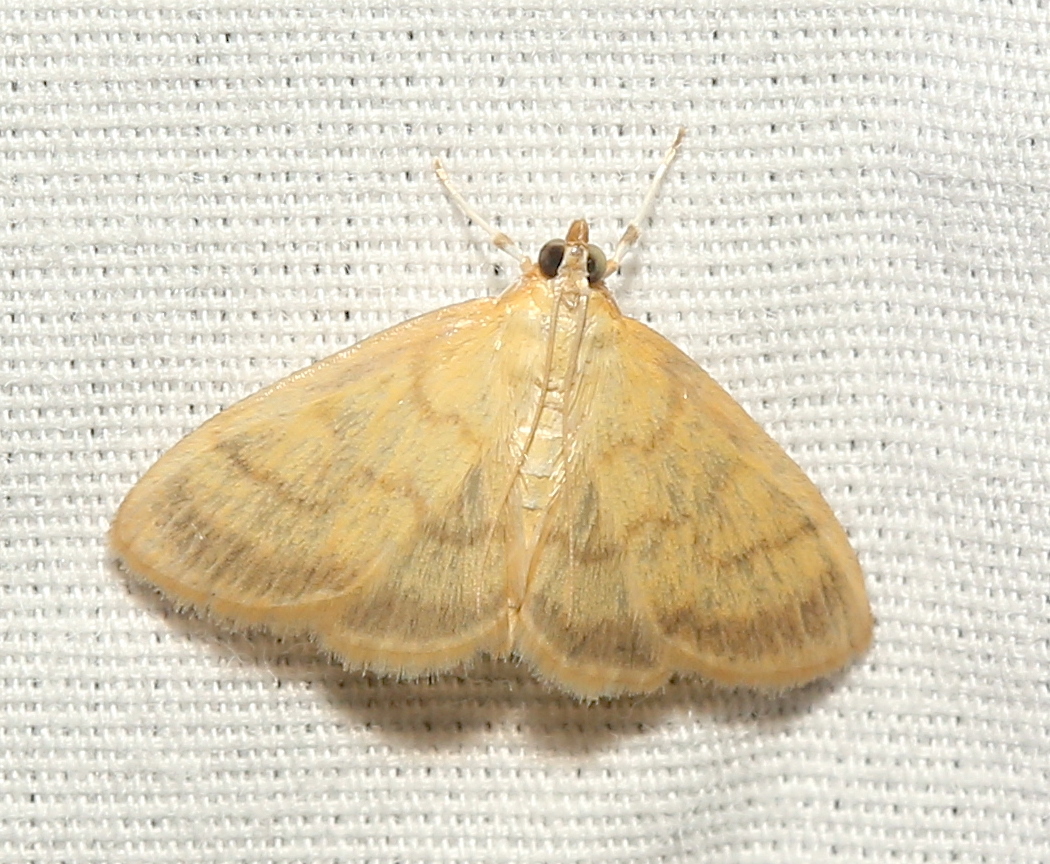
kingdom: Animalia
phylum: Arthropoda
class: Insecta
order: Lepidoptera
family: Crambidae
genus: Crocidophora
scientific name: Crocidophora tuberculalis
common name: Pale-winged crocidiphora moth
